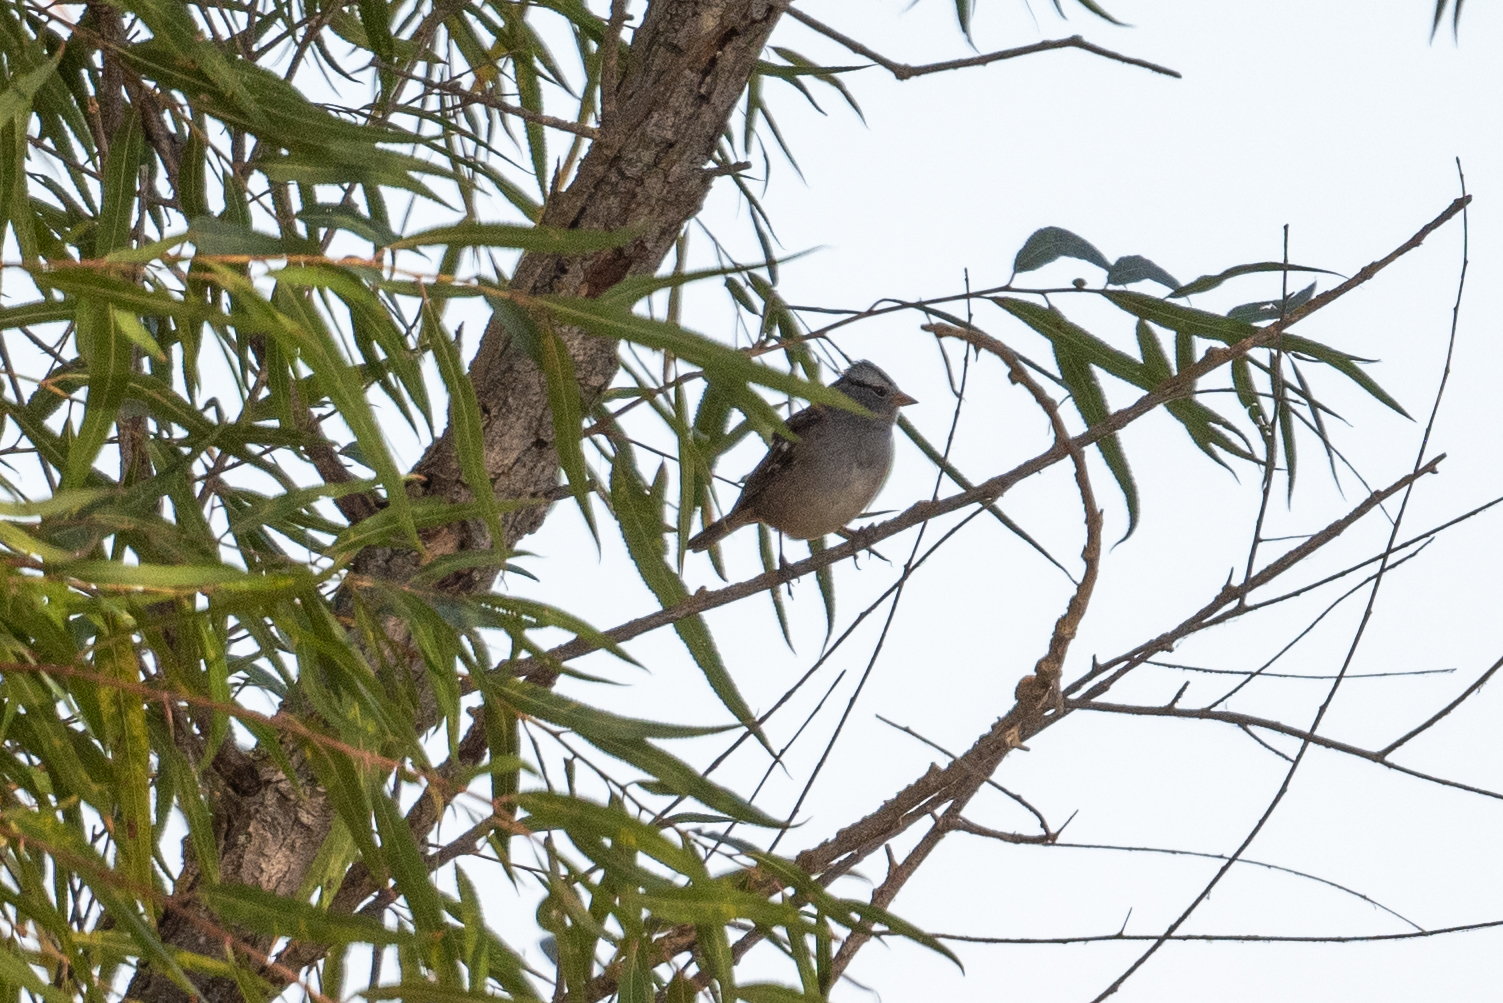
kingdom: Animalia
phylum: Chordata
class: Aves
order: Passeriformes
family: Passerellidae
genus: Zonotrichia
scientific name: Zonotrichia leucophrys
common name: White-crowned sparrow
